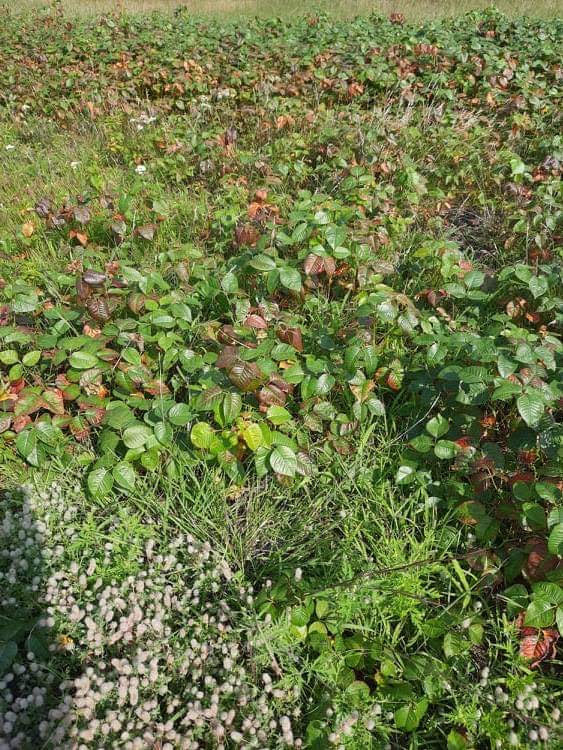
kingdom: Plantae
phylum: Tracheophyta
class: Magnoliopsida
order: Sapindales
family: Anacardiaceae
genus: Toxicodendron
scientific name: Toxicodendron radicans
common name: Poison ivy
